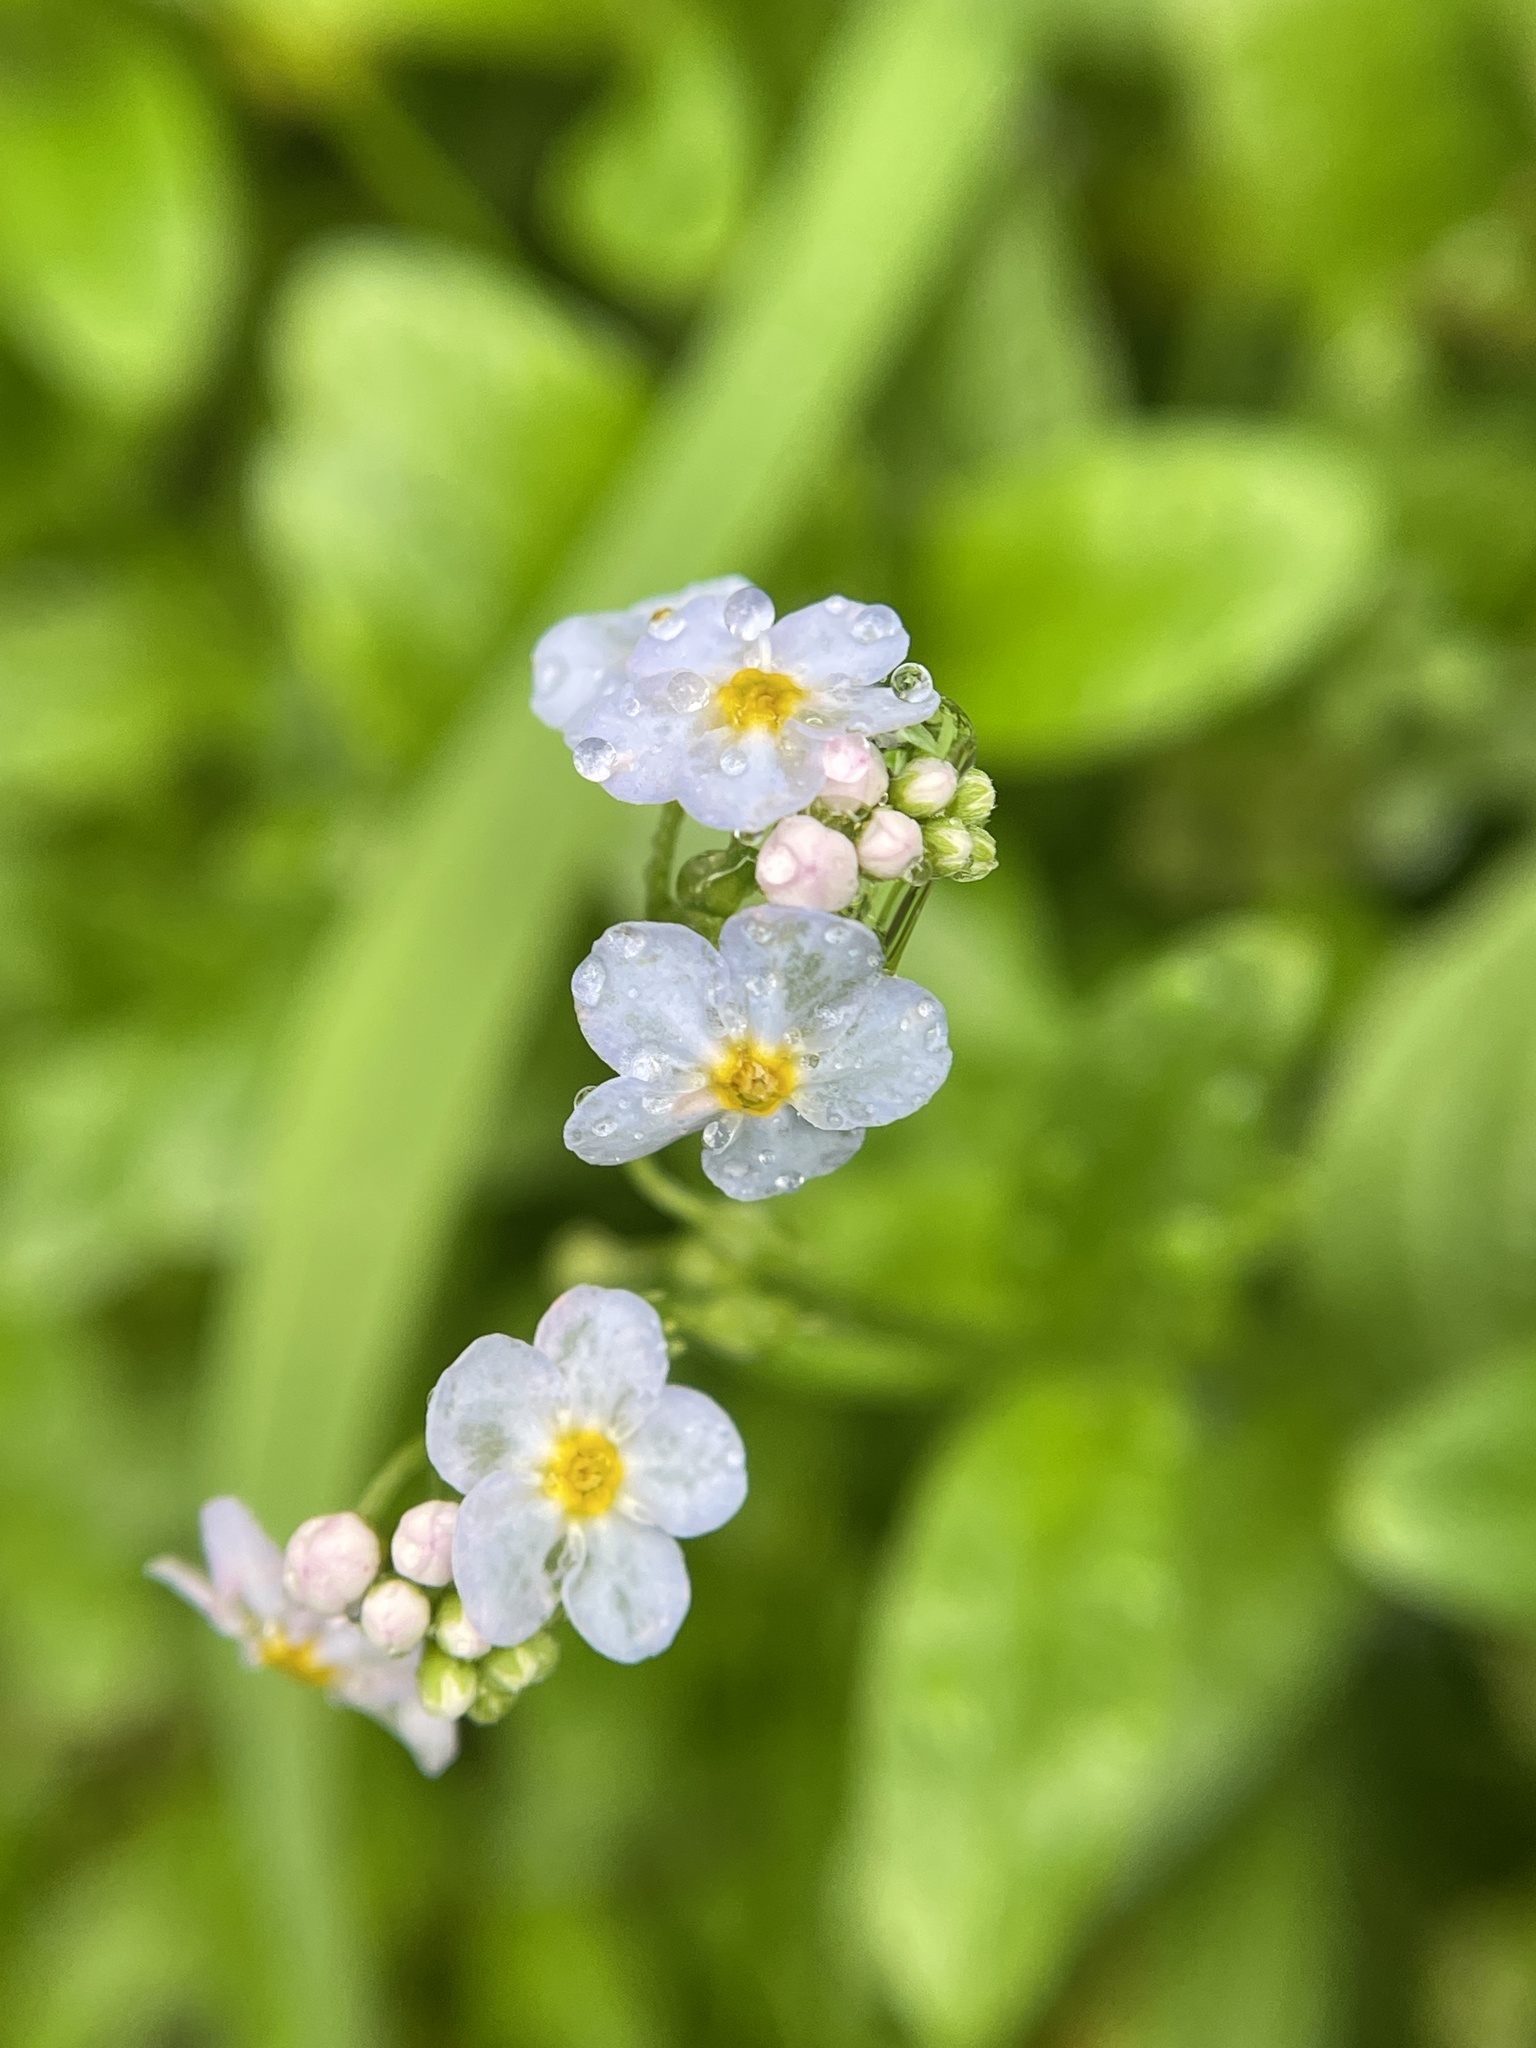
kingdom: Plantae
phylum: Tracheophyta
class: Magnoliopsida
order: Boraginales
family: Boraginaceae
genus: Myosotis
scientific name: Myosotis scorpioides
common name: Water forget-me-not
